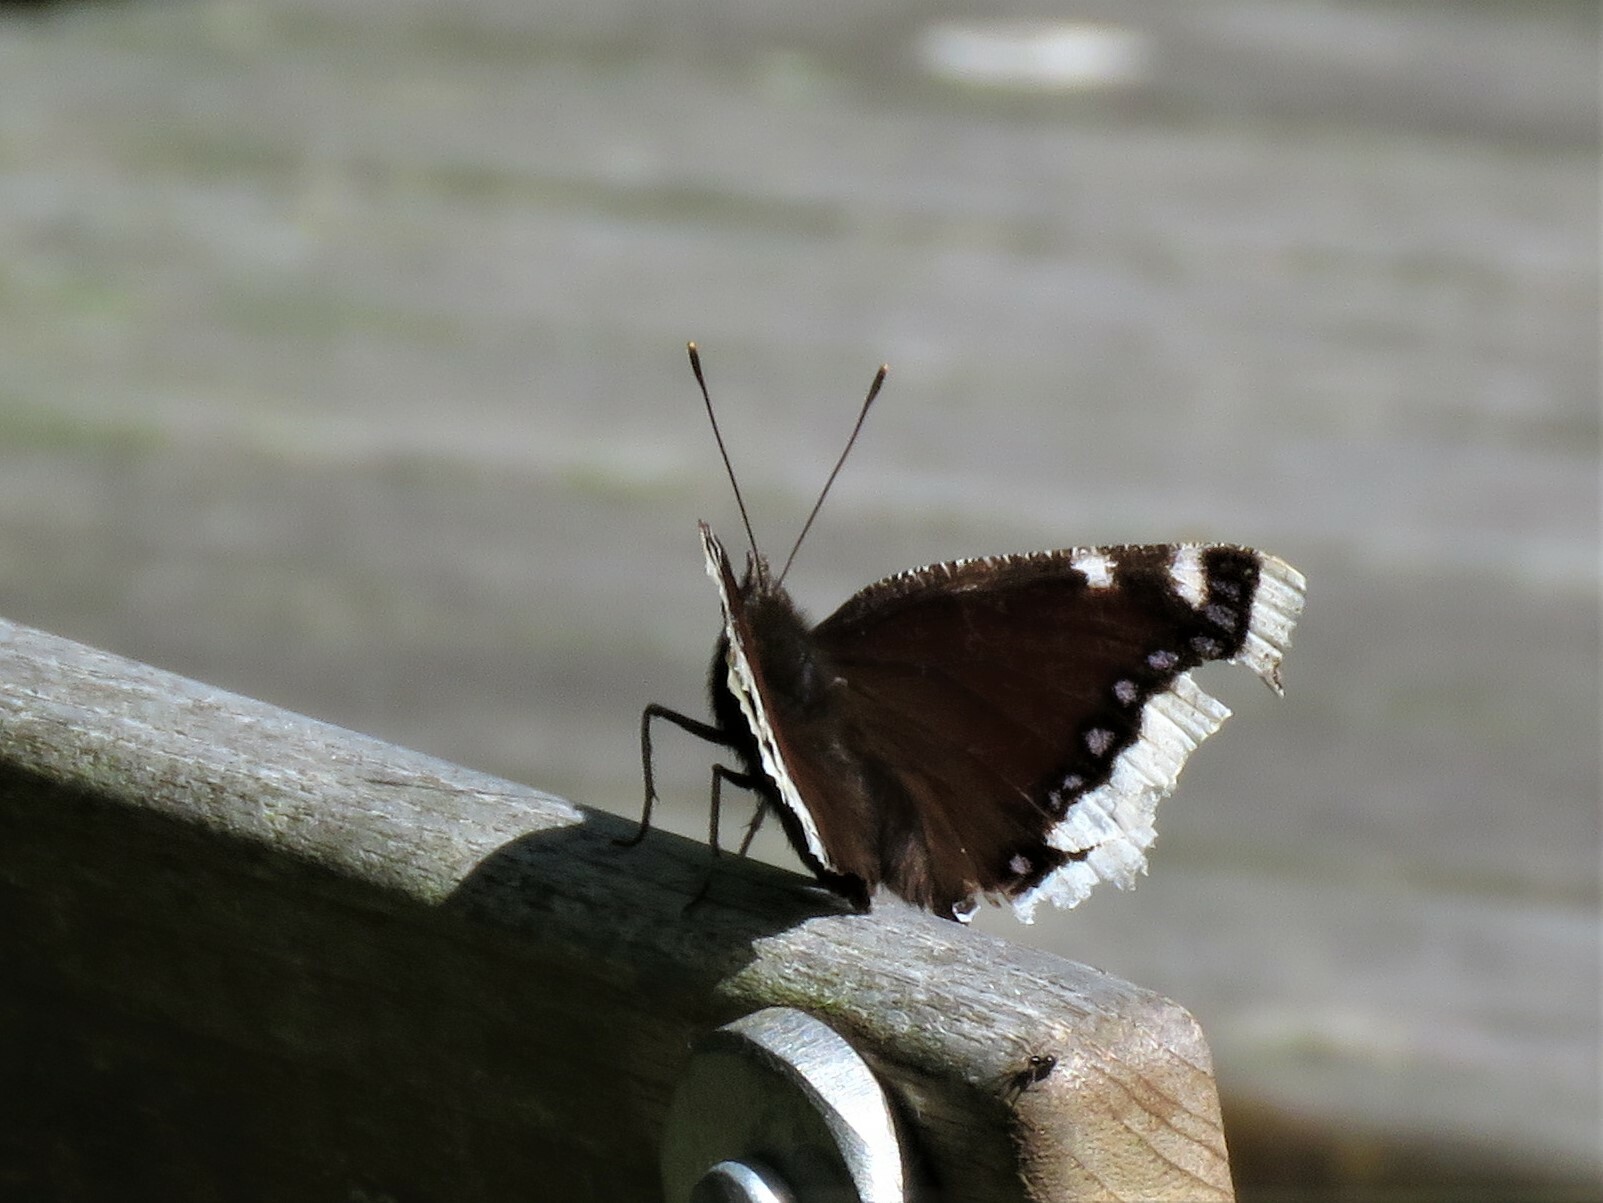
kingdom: Animalia
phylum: Arthropoda
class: Insecta
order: Lepidoptera
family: Nymphalidae
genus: Nymphalis
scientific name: Nymphalis antiopa
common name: Camberwell beauty
